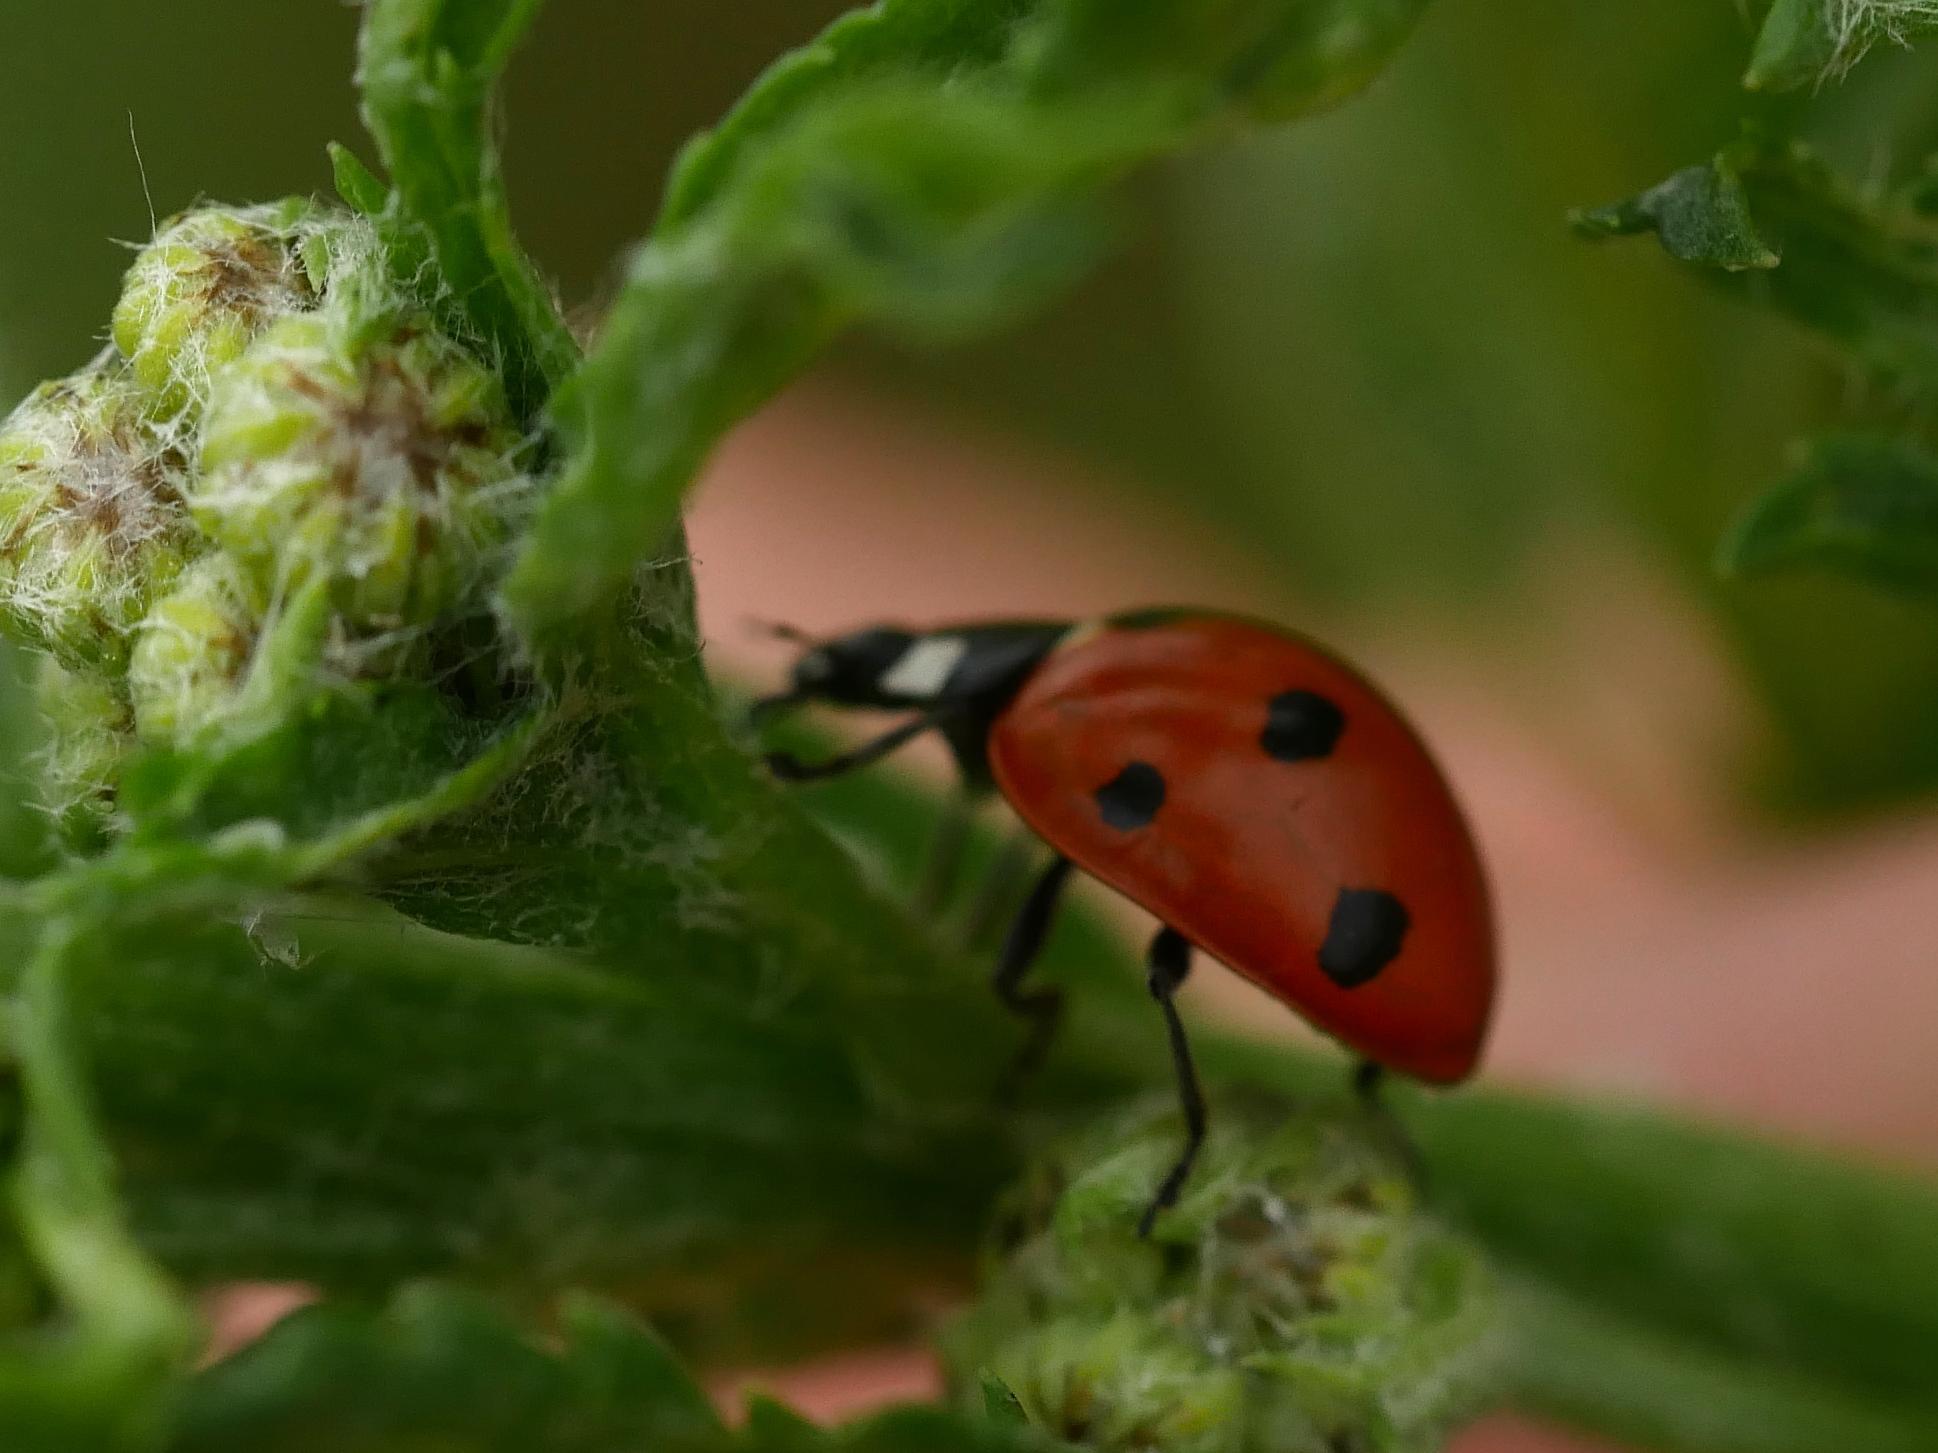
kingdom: Animalia
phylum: Arthropoda
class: Insecta
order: Coleoptera
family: Coccinellidae
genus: Coccinella
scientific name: Coccinella septempunctata
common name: Sevenspotted lady beetle
